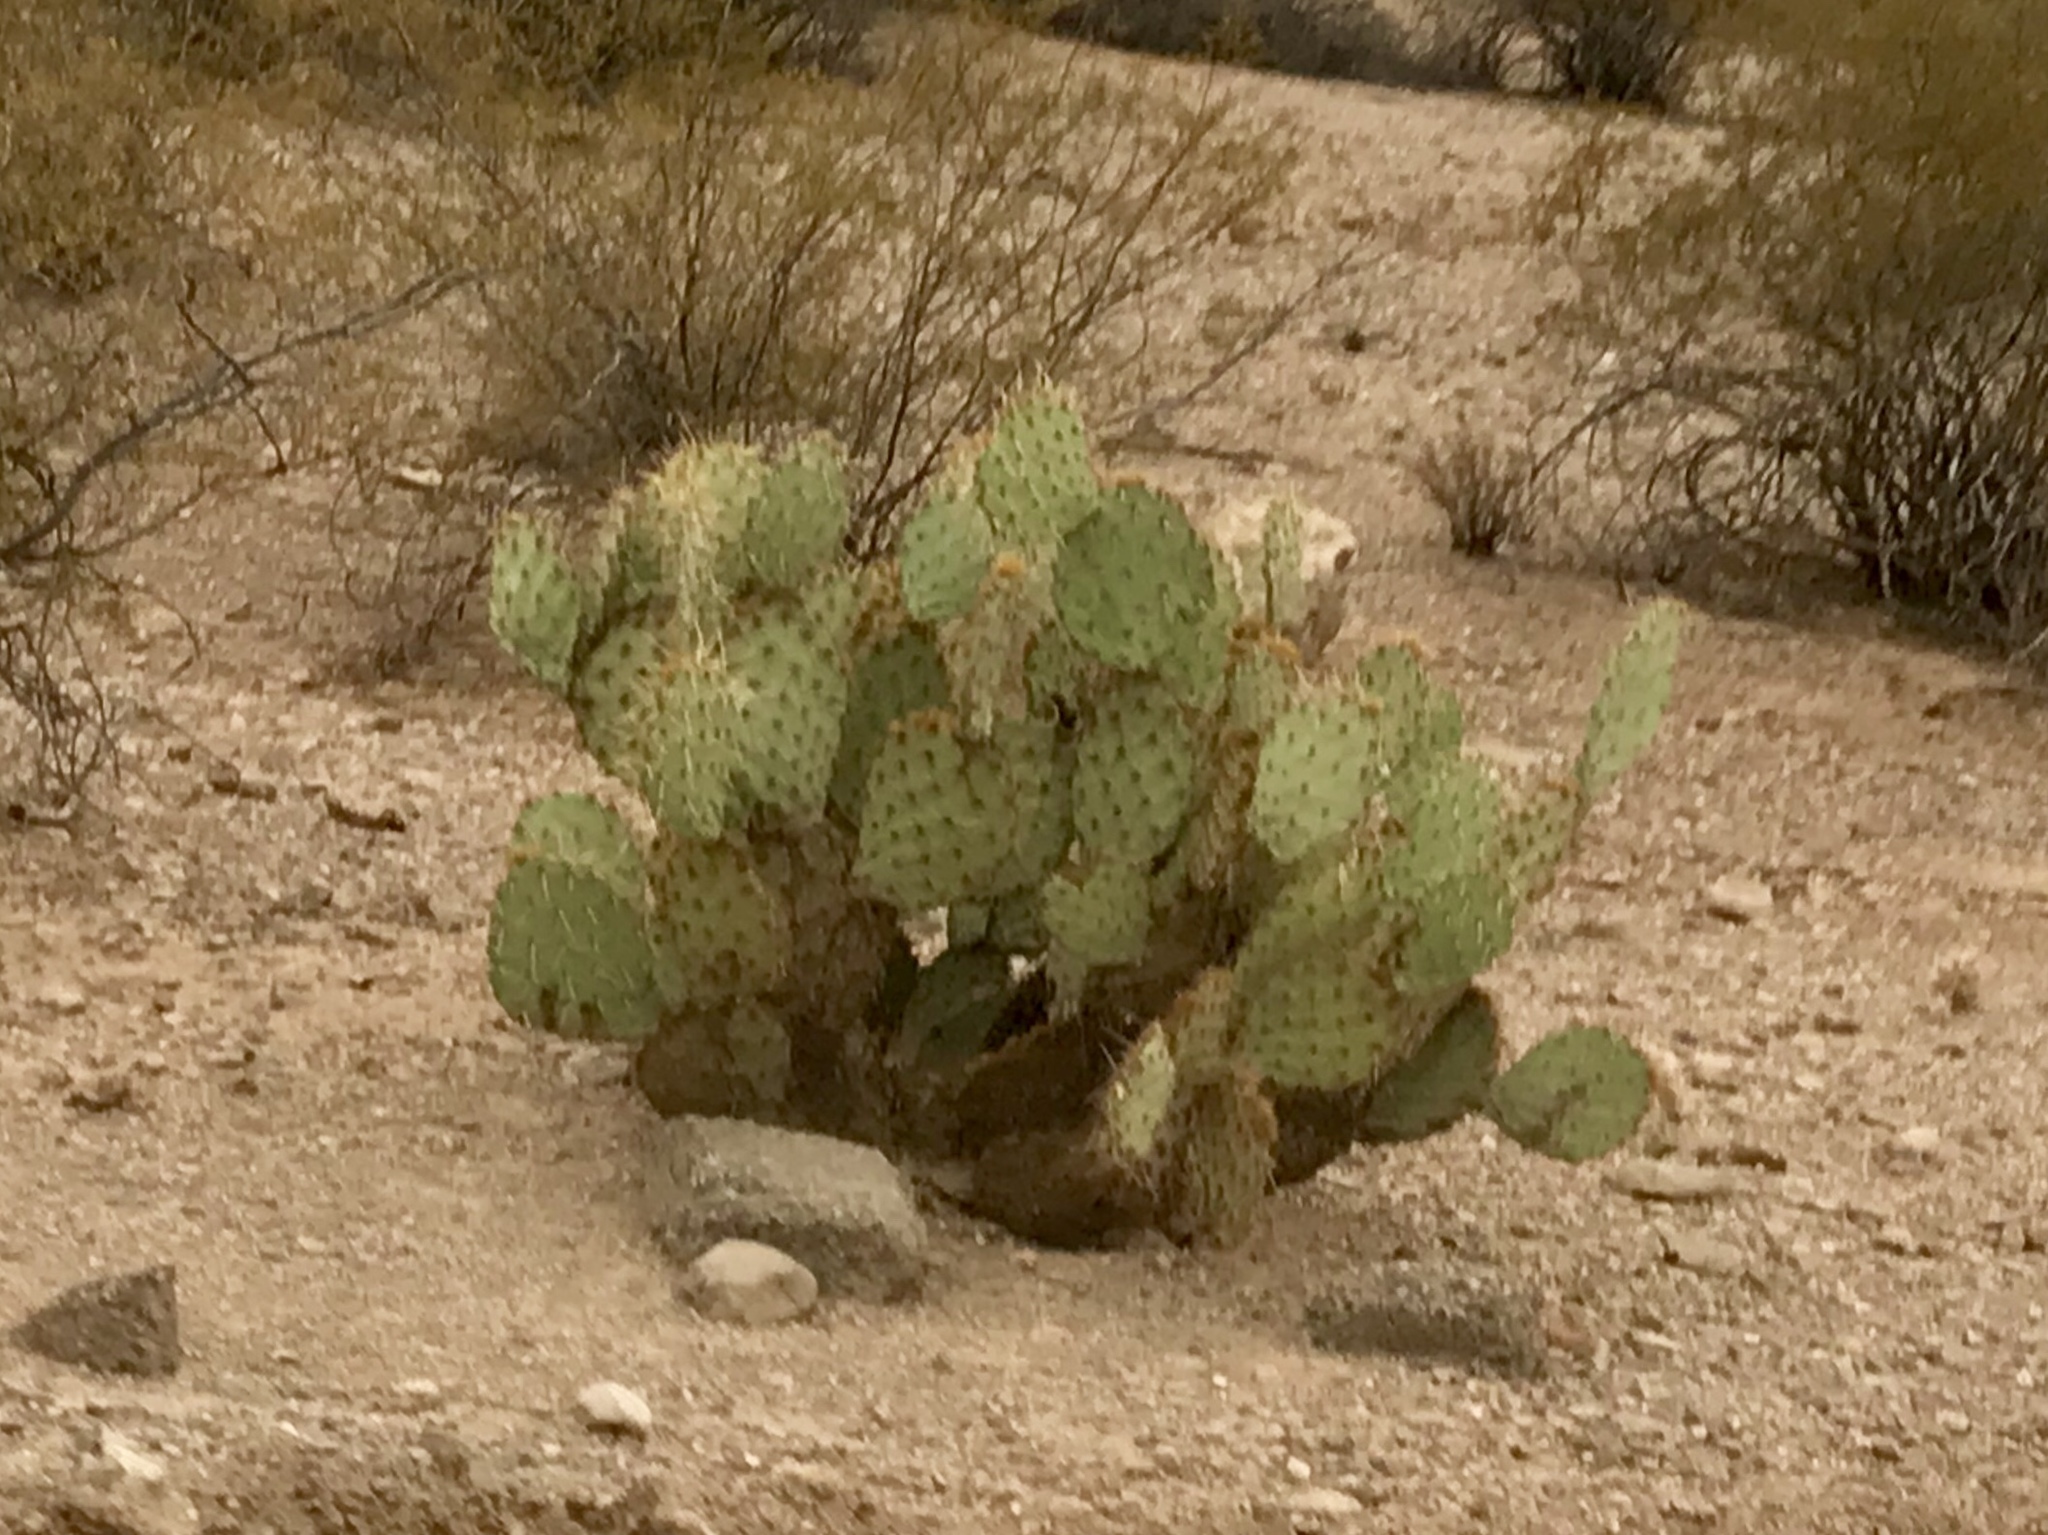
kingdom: Plantae
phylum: Tracheophyta
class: Magnoliopsida
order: Caryophyllales
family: Cactaceae
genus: Opuntia
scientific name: Opuntia chlorotica
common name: Dollar-joint prickly-pear
